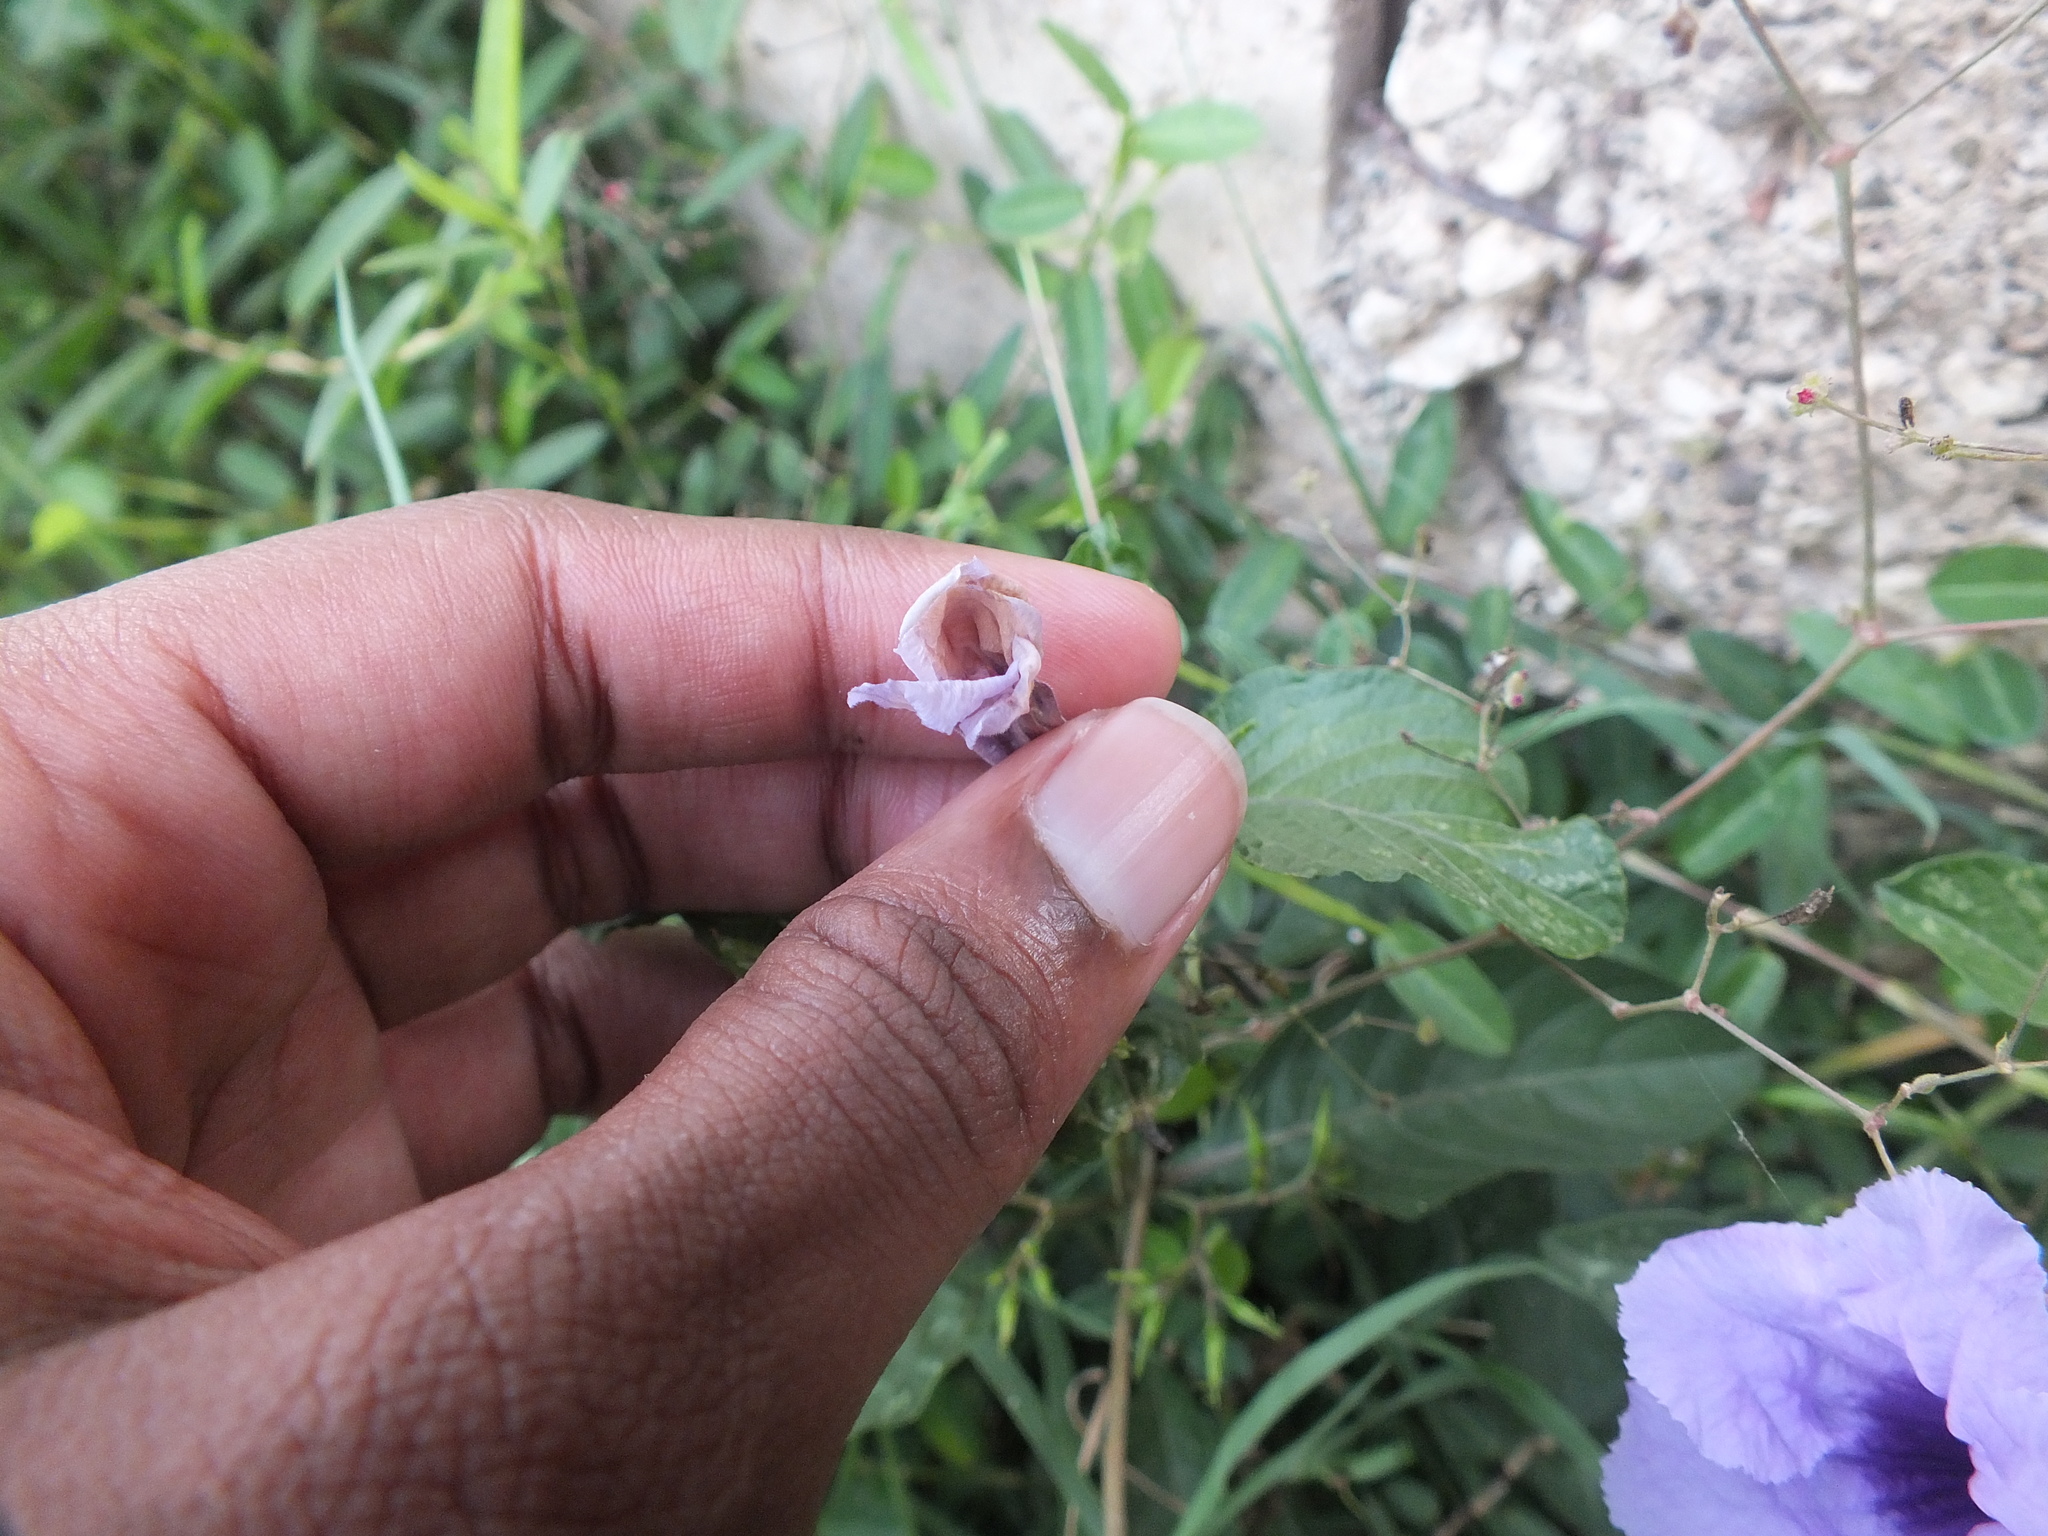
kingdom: Plantae
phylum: Tracheophyta
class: Magnoliopsida
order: Lamiales
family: Acanthaceae
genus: Ruellia
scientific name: Ruellia tuberosa
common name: Devil's bit
